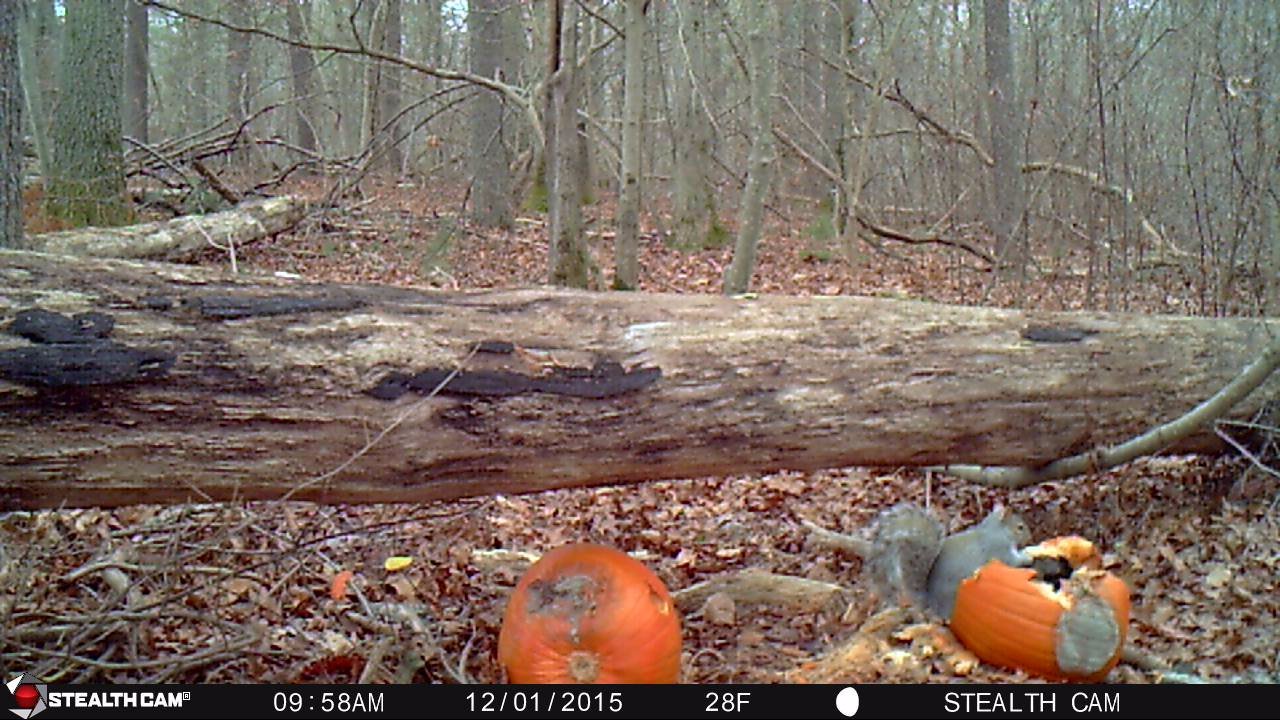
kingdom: Animalia
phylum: Chordata
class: Mammalia
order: Rodentia
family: Sciuridae
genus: Sciurus
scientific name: Sciurus carolinensis
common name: Eastern gray squirrel
